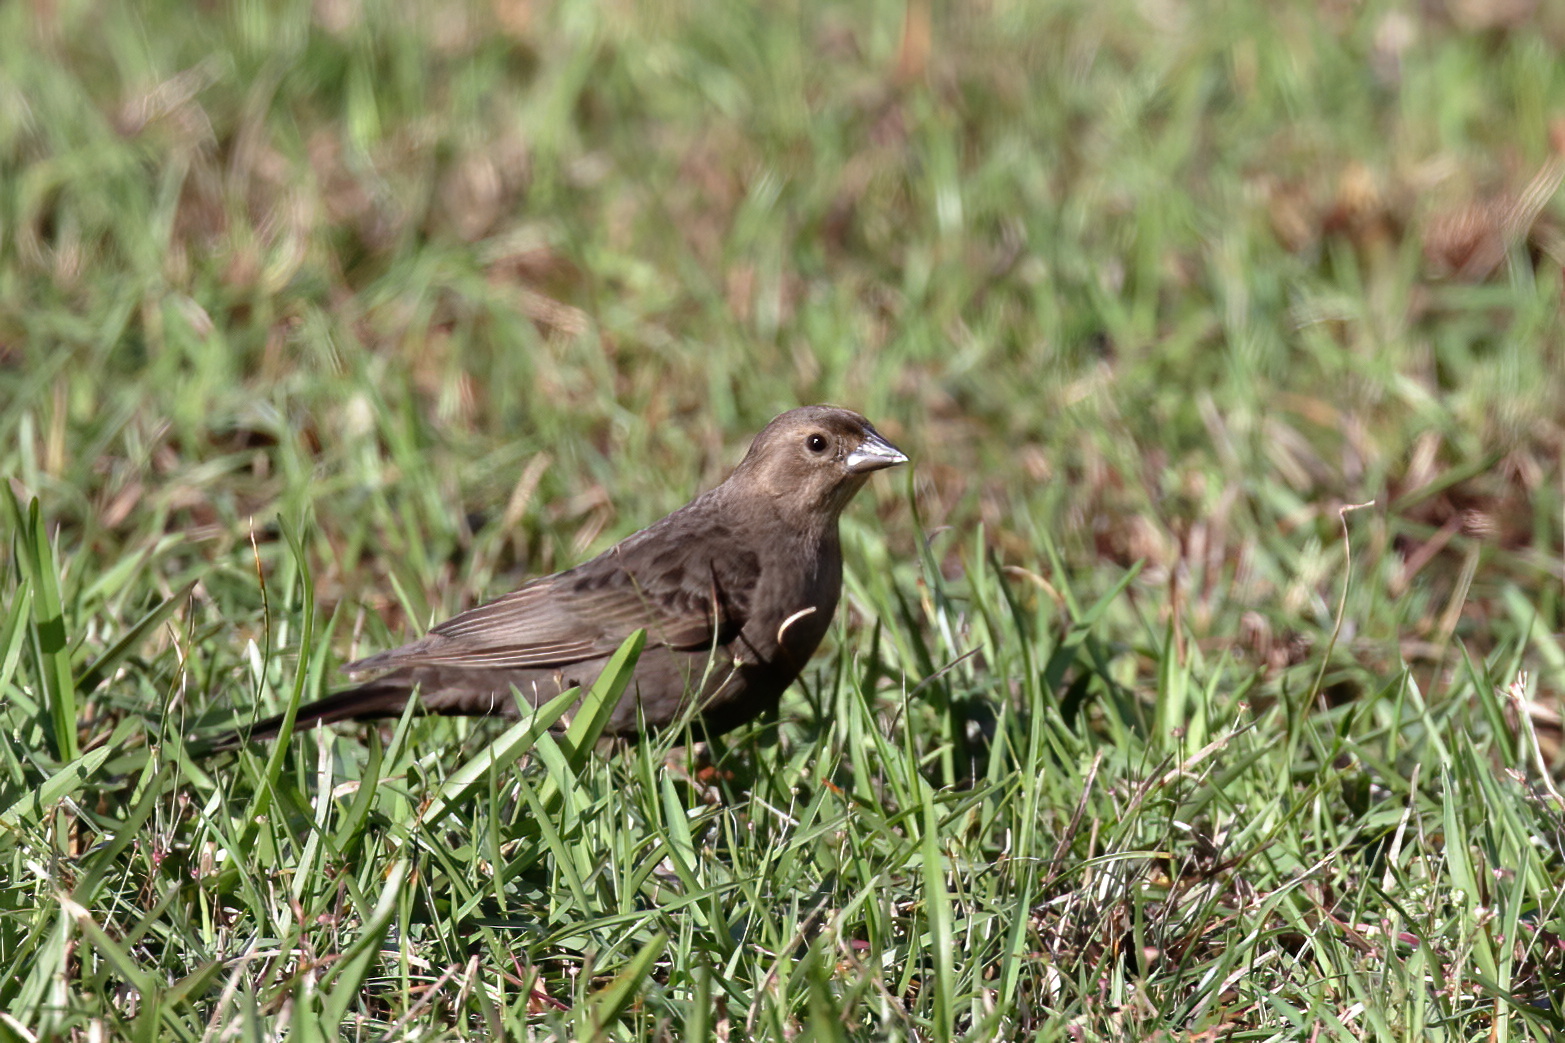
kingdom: Animalia
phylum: Chordata
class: Aves
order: Passeriformes
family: Icteridae
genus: Molothrus
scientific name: Molothrus ater
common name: Brown-headed cowbird
